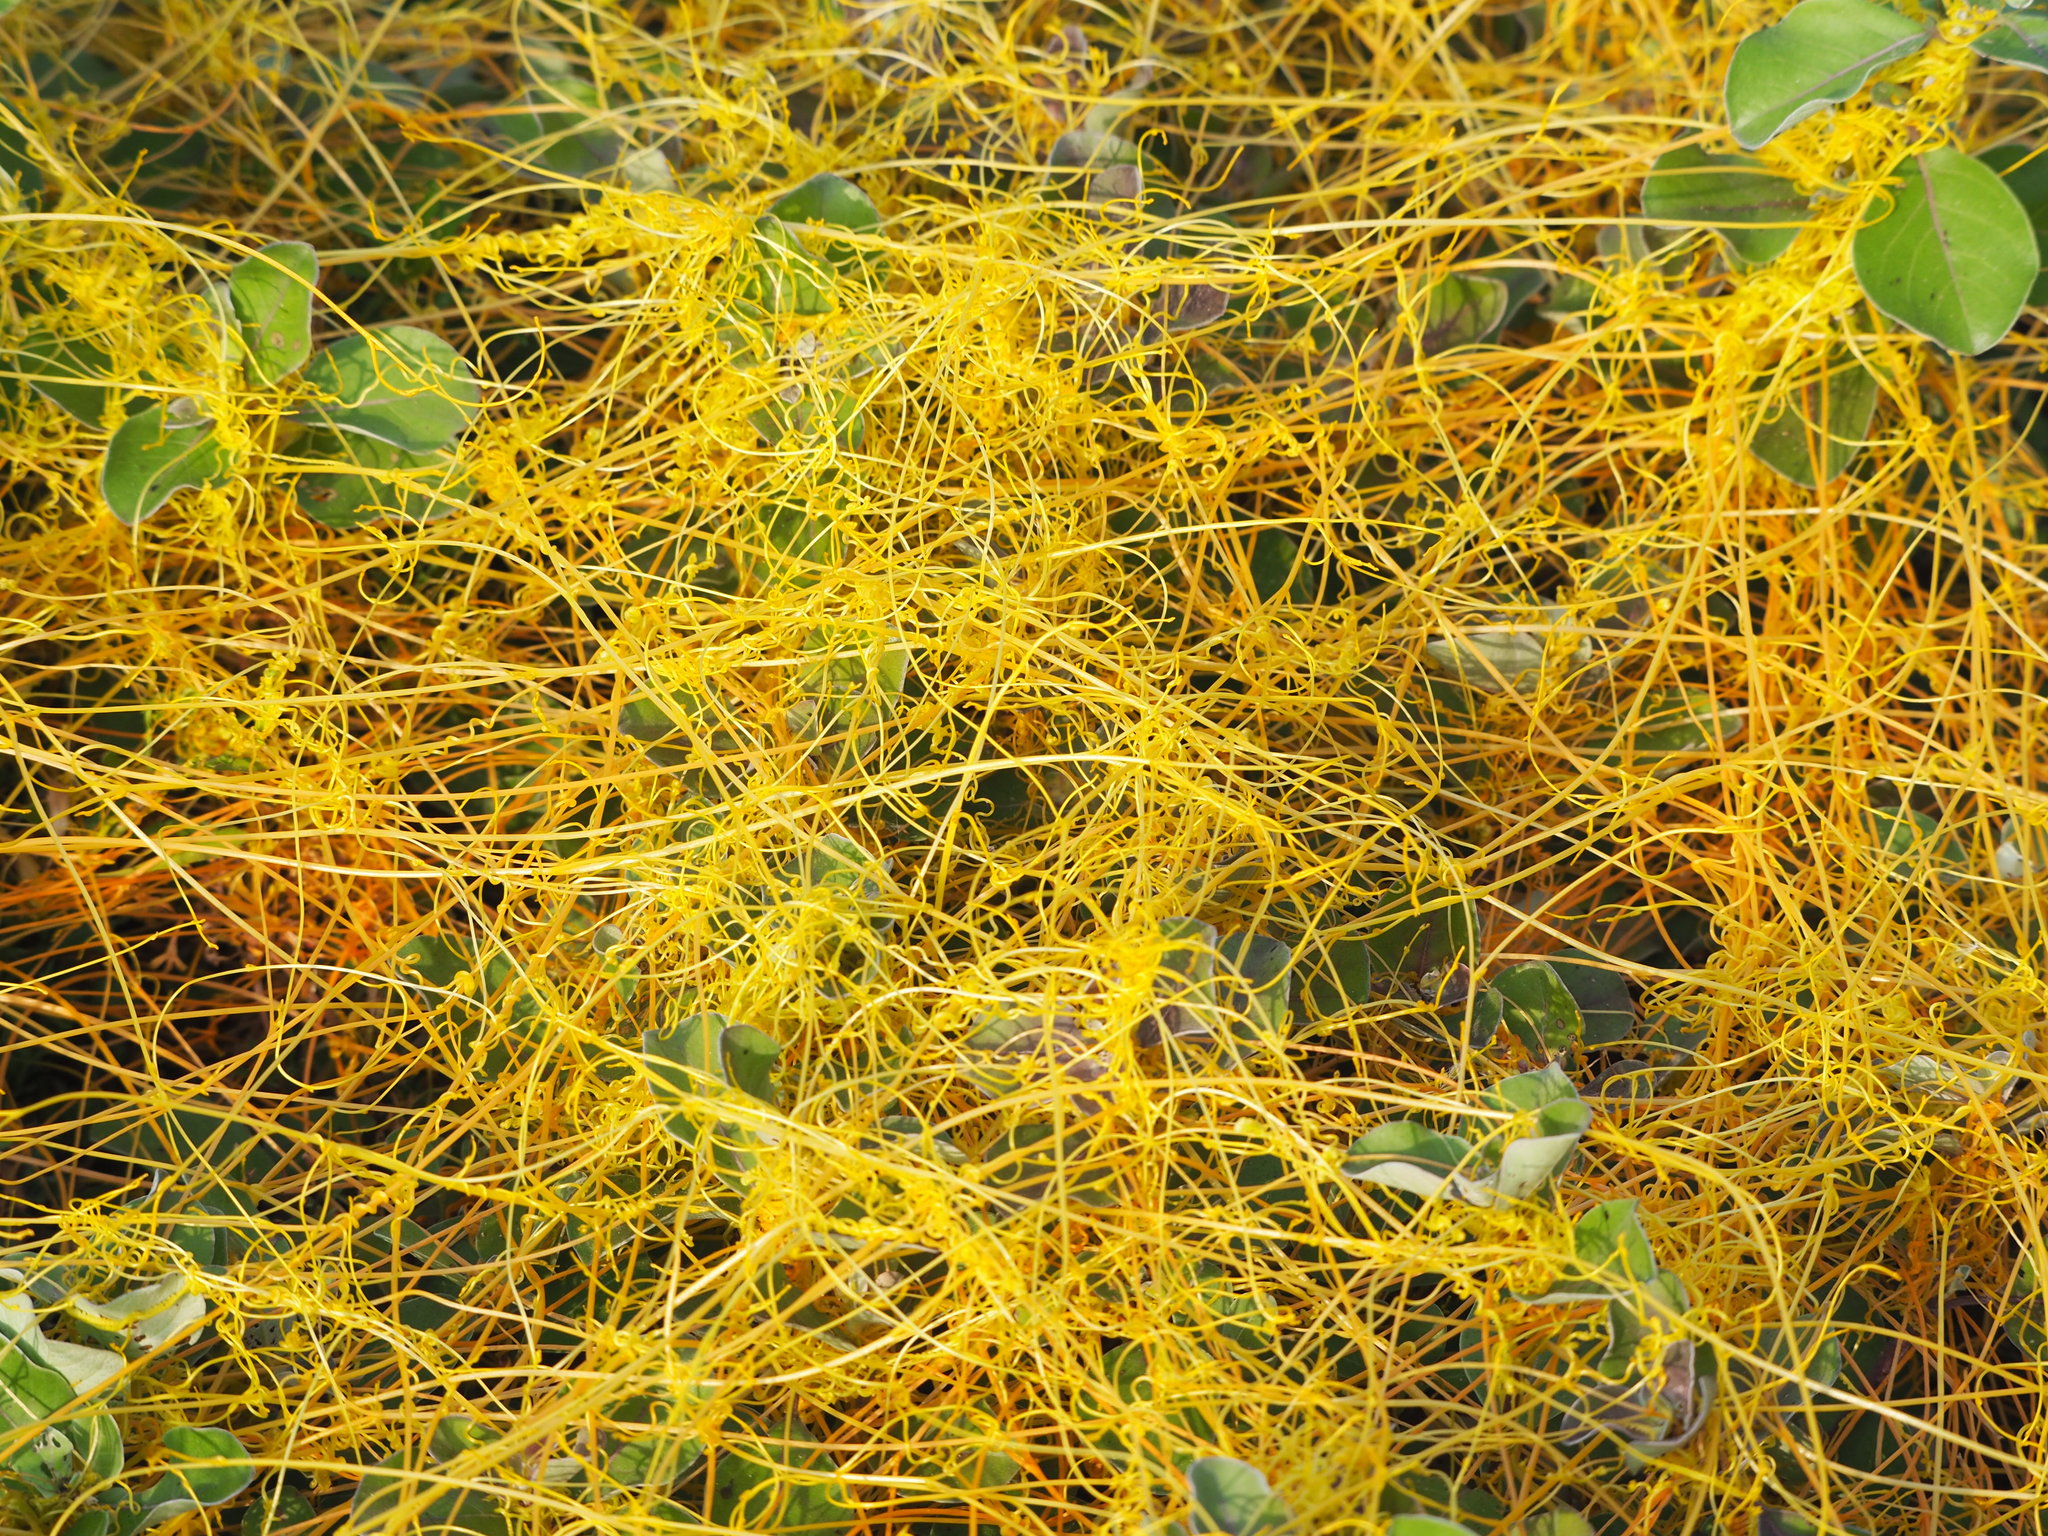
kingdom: Plantae
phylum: Tracheophyta
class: Magnoliopsida
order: Solanales
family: Convolvulaceae
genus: Cuscuta
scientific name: Cuscuta campestris
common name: Yellow dodder
